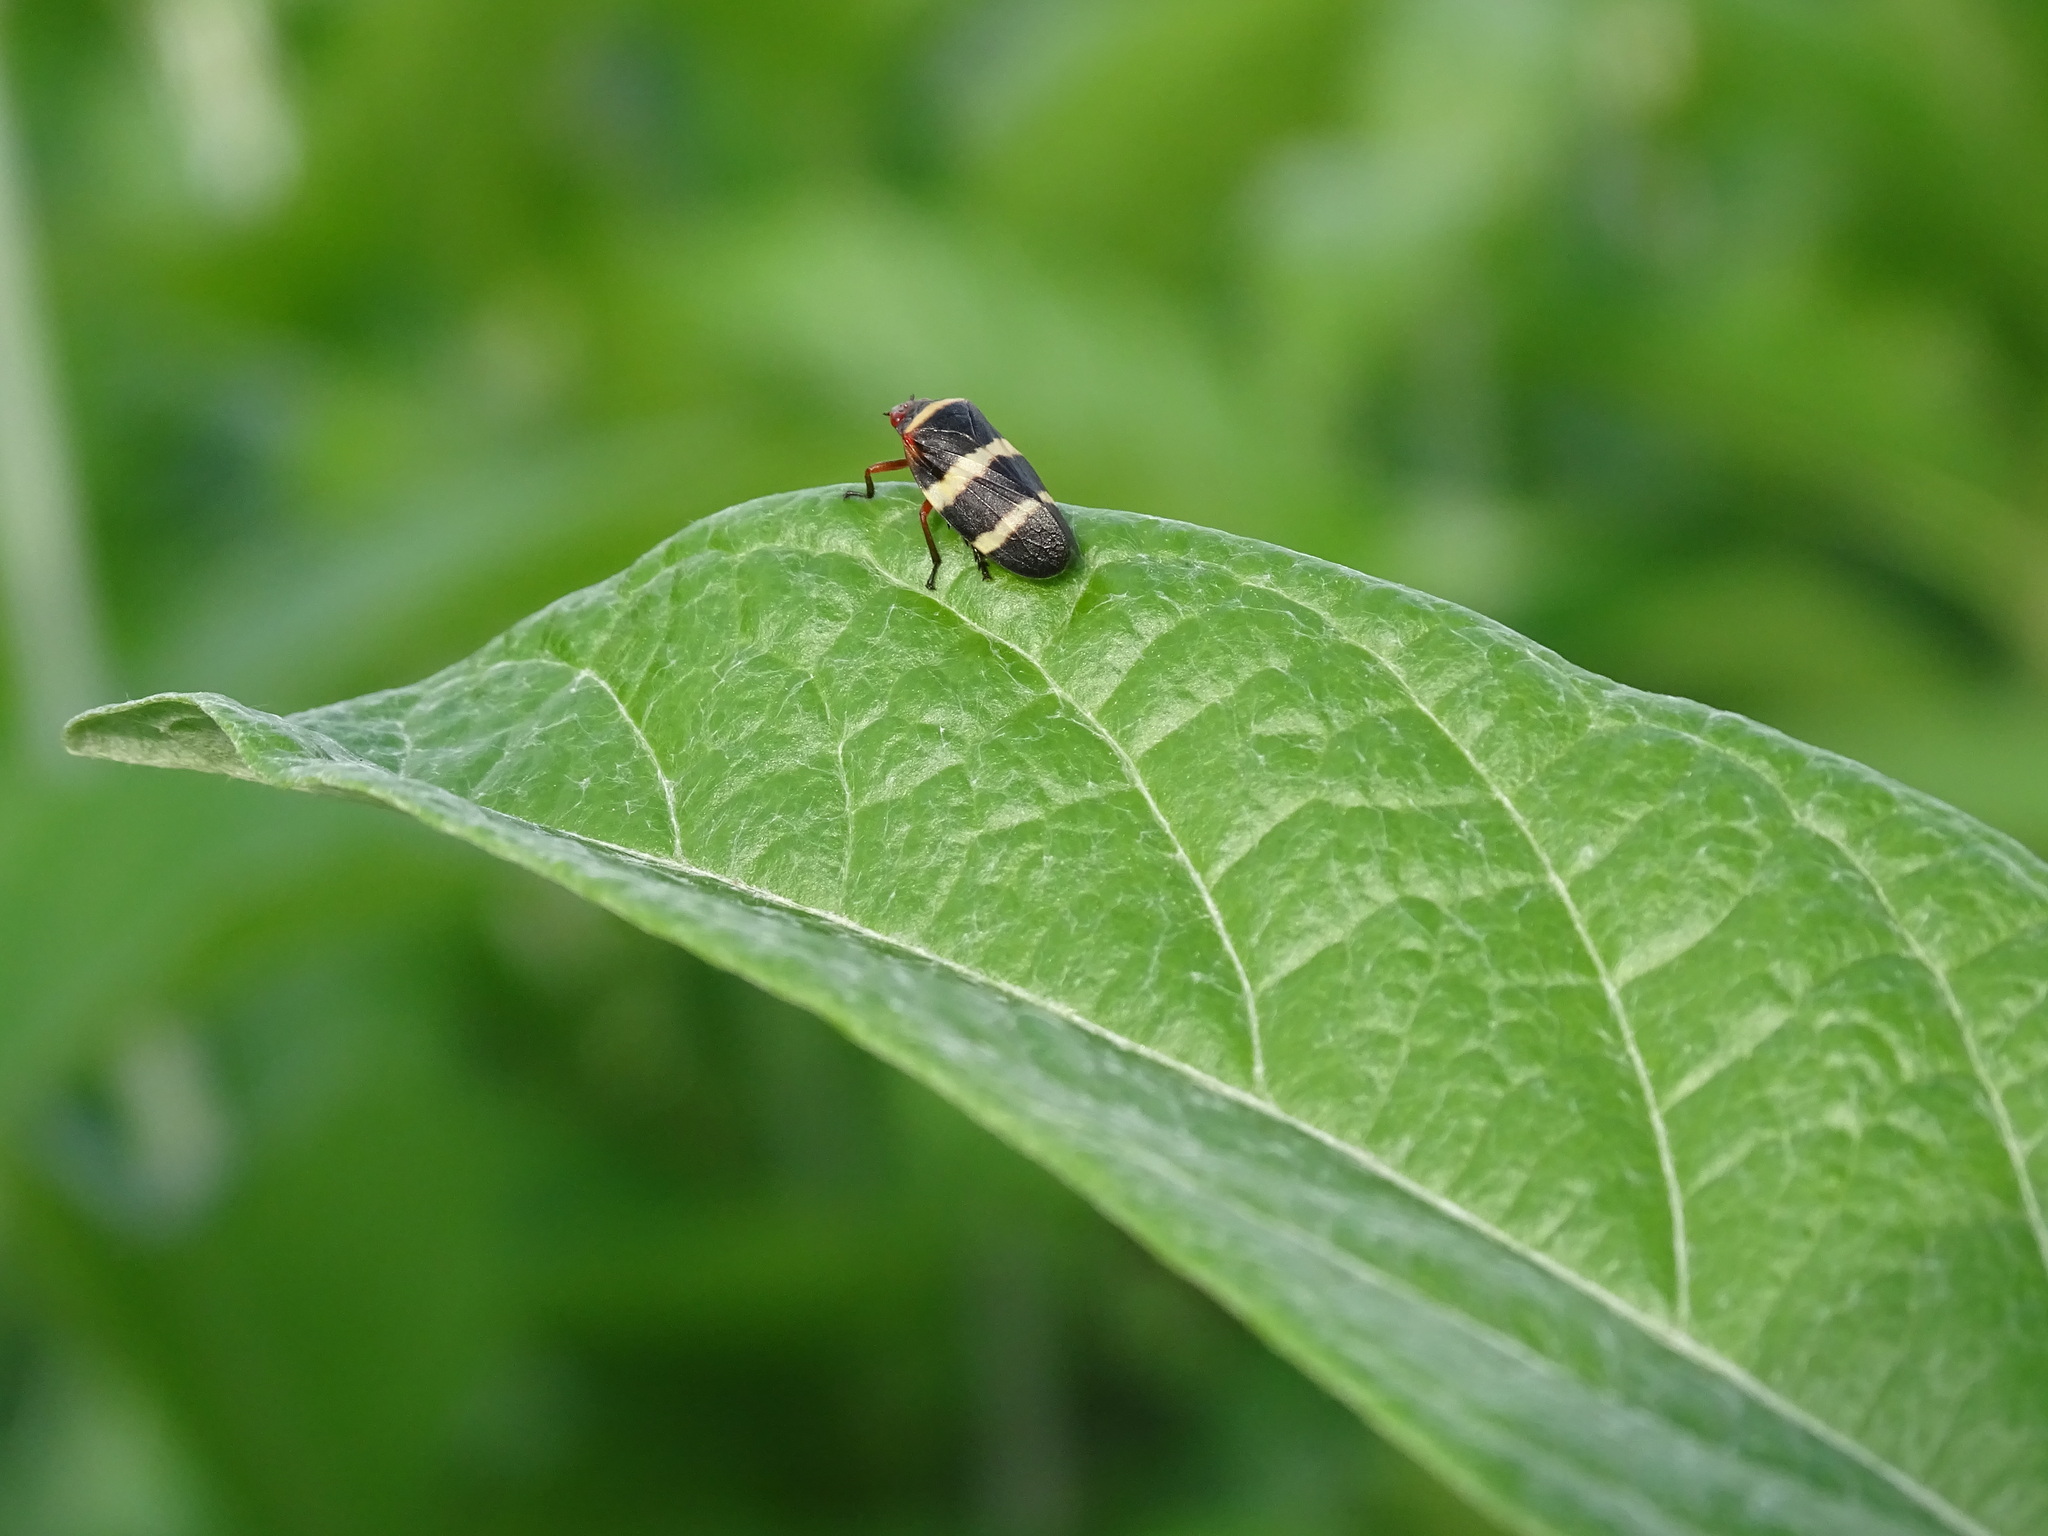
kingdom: Animalia
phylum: Arthropoda
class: Insecta
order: Hemiptera
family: Cercopidae
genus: Prosapia
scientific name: Prosapia simulans
